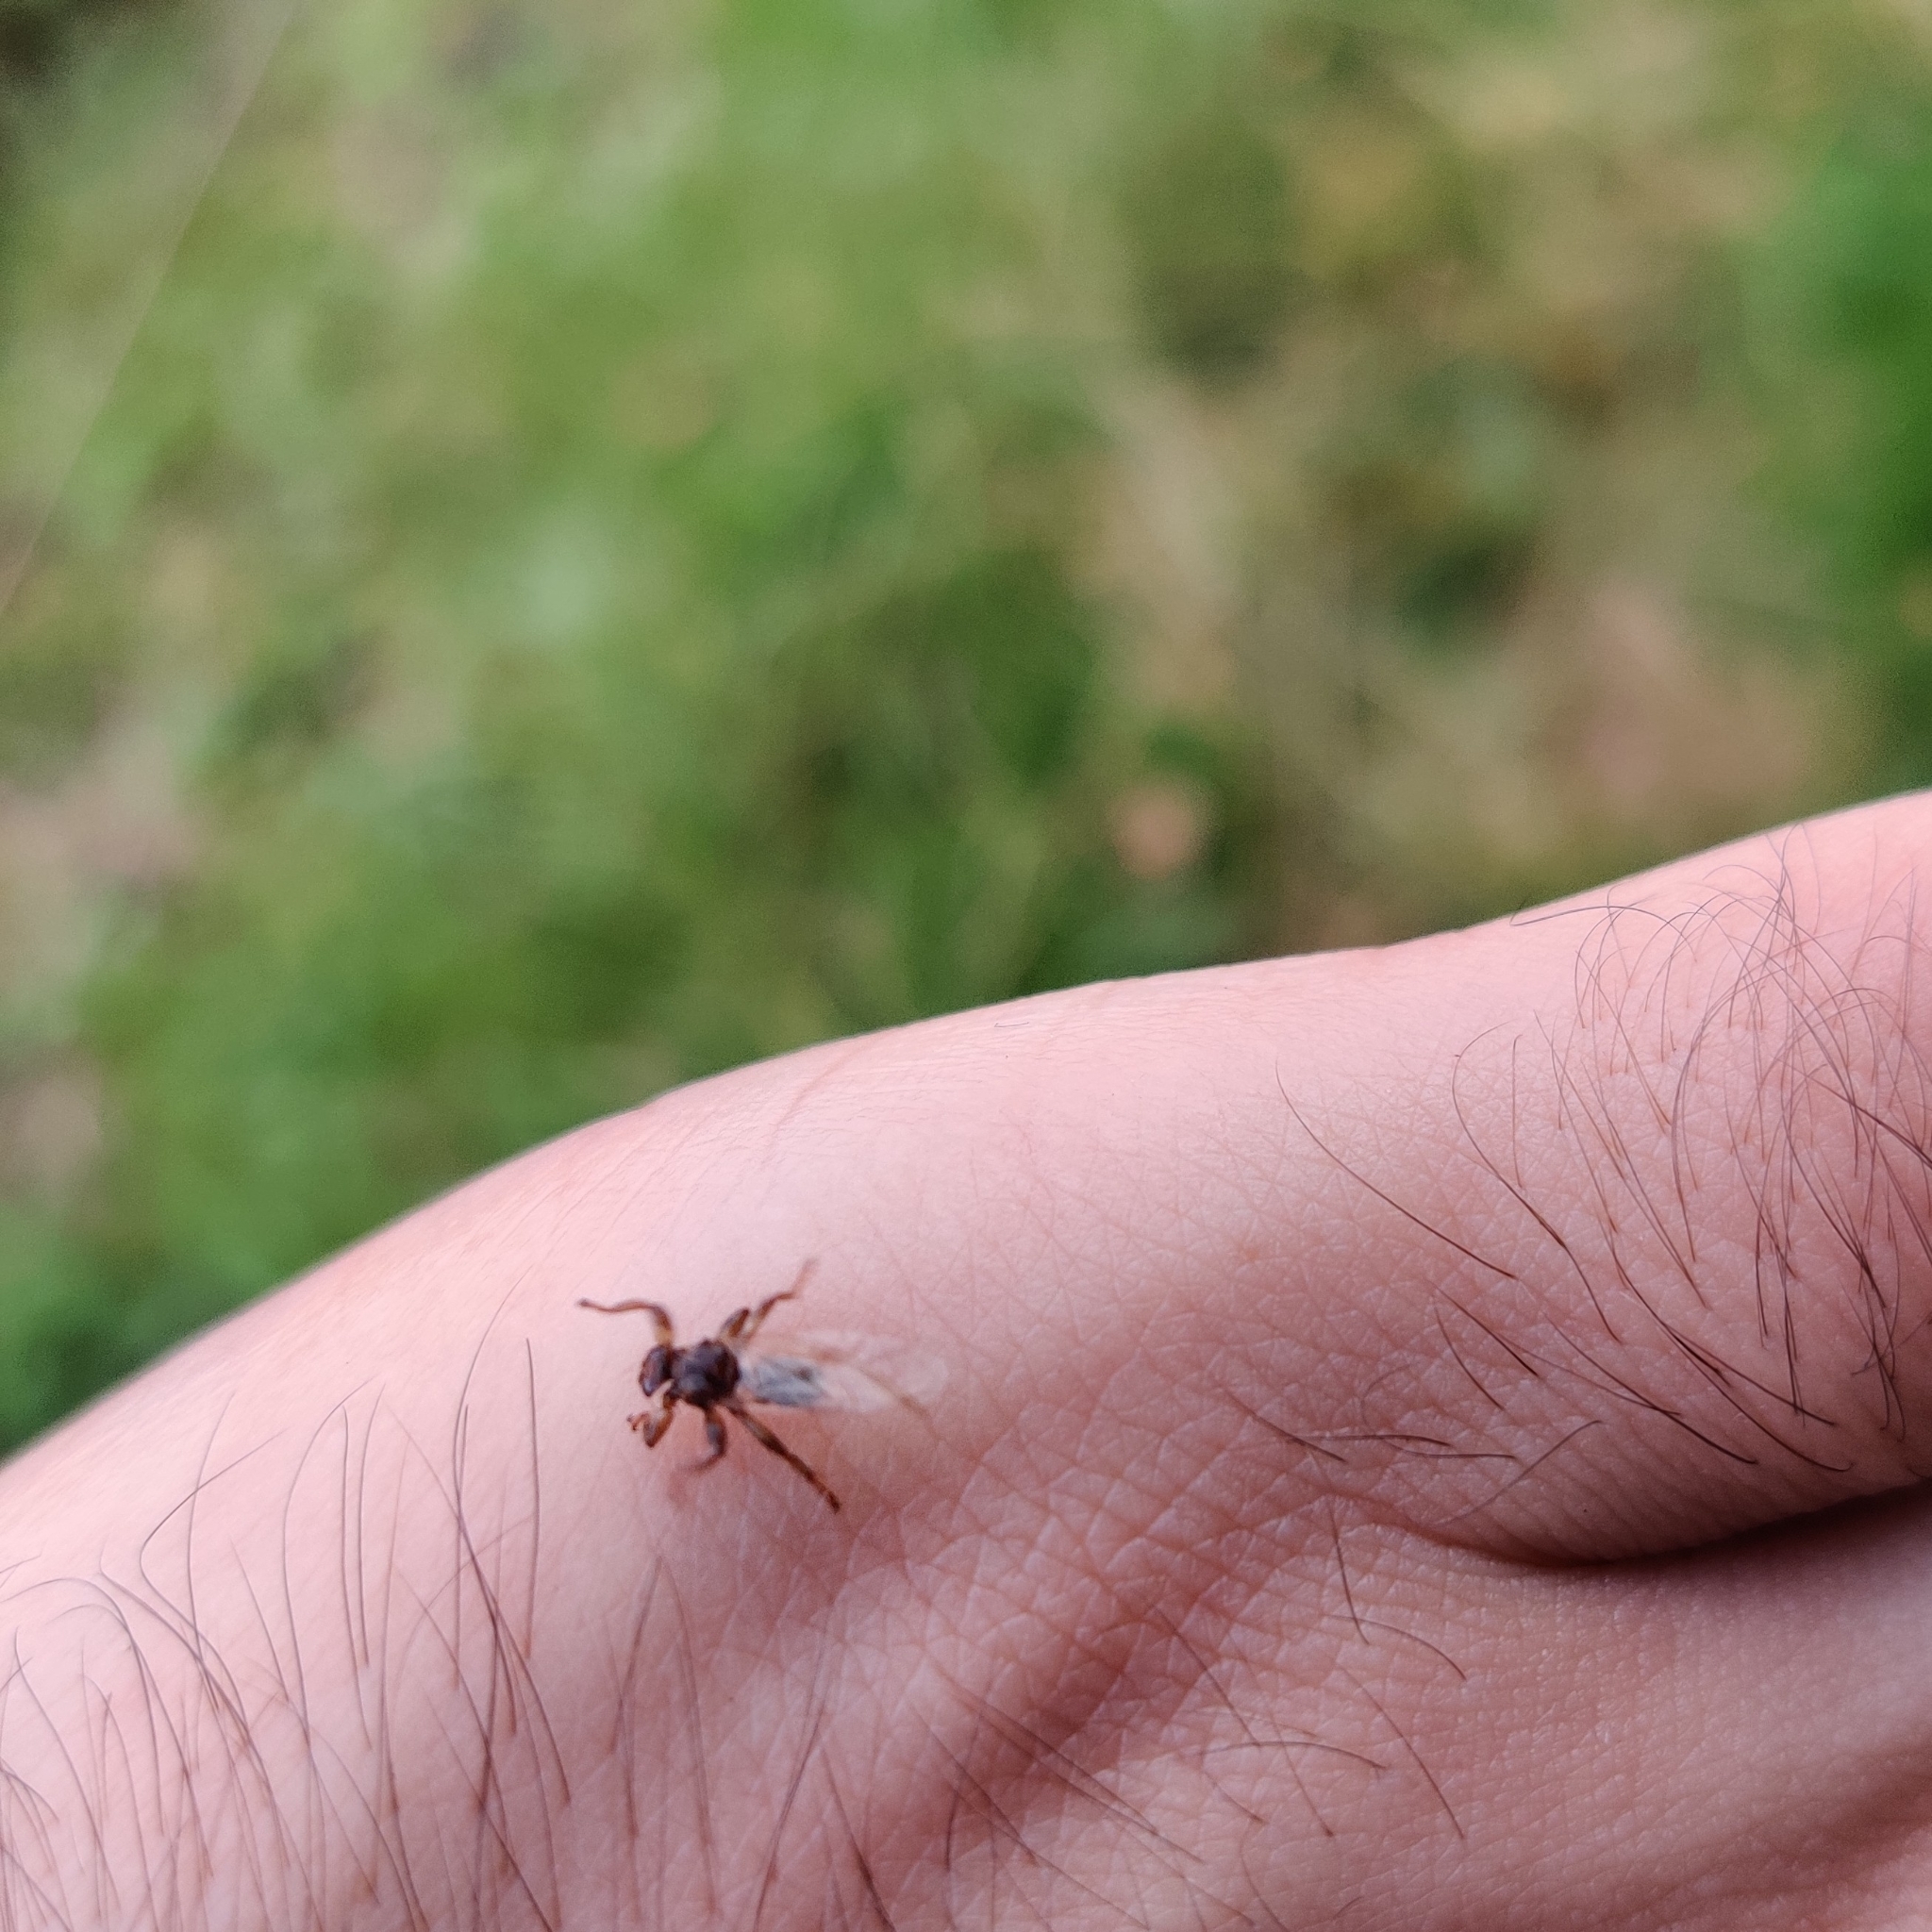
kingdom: Animalia
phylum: Arthropoda
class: Insecta
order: Diptera
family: Hippoboscidae
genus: Lipoptena
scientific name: Lipoptena cervi
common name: Deer ked
